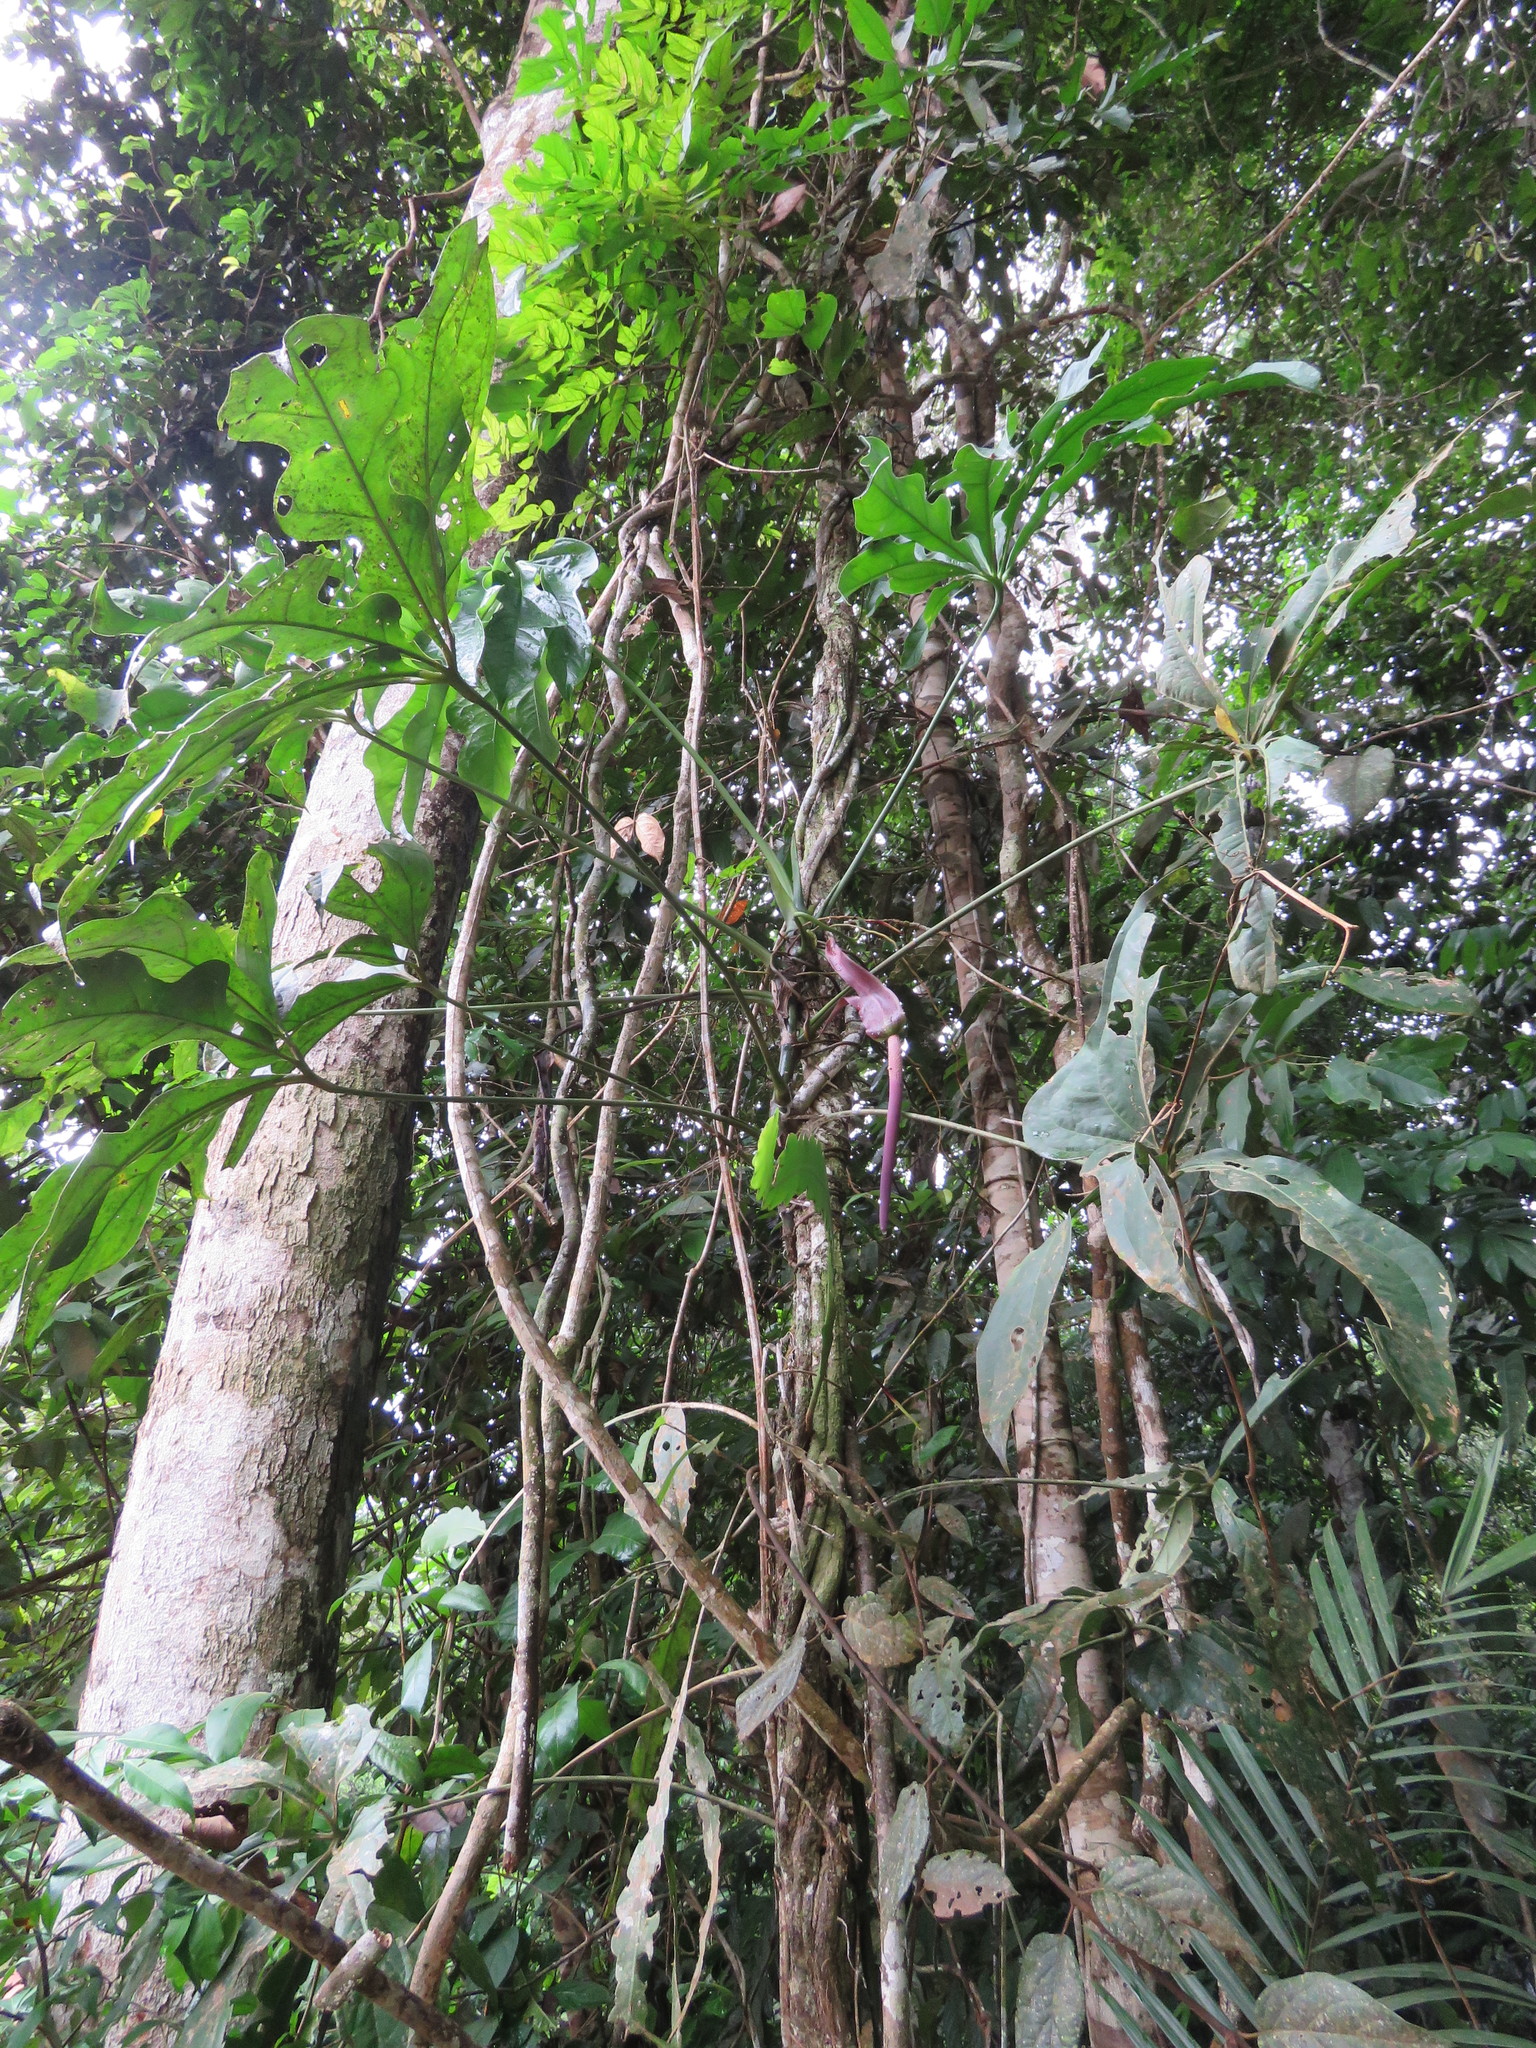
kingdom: Plantae
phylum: Tracheophyta
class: Liliopsida
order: Alismatales
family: Araceae
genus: Anthurium
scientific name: Anthurium clavigerum
